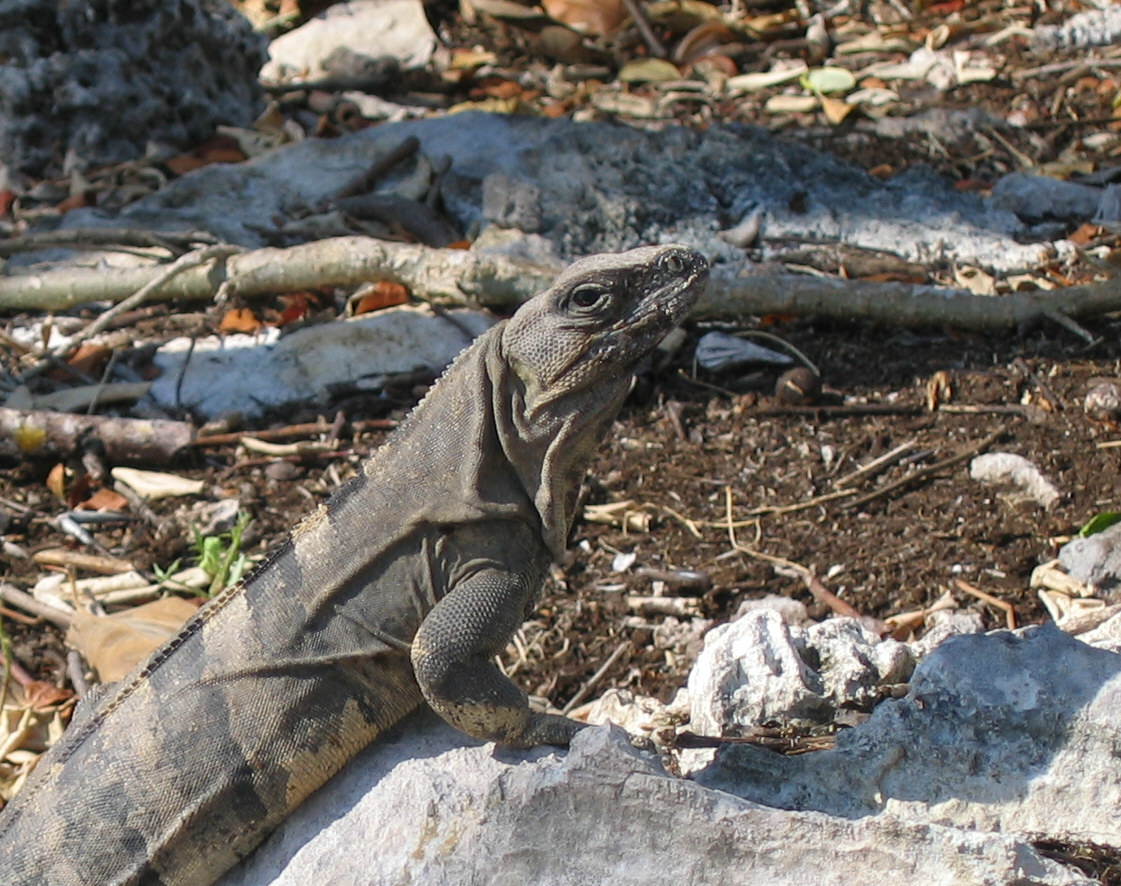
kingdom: Animalia
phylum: Chordata
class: Squamata
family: Iguanidae
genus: Ctenosaura
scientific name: Ctenosaura similis
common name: Black spiny-tailed iguana
